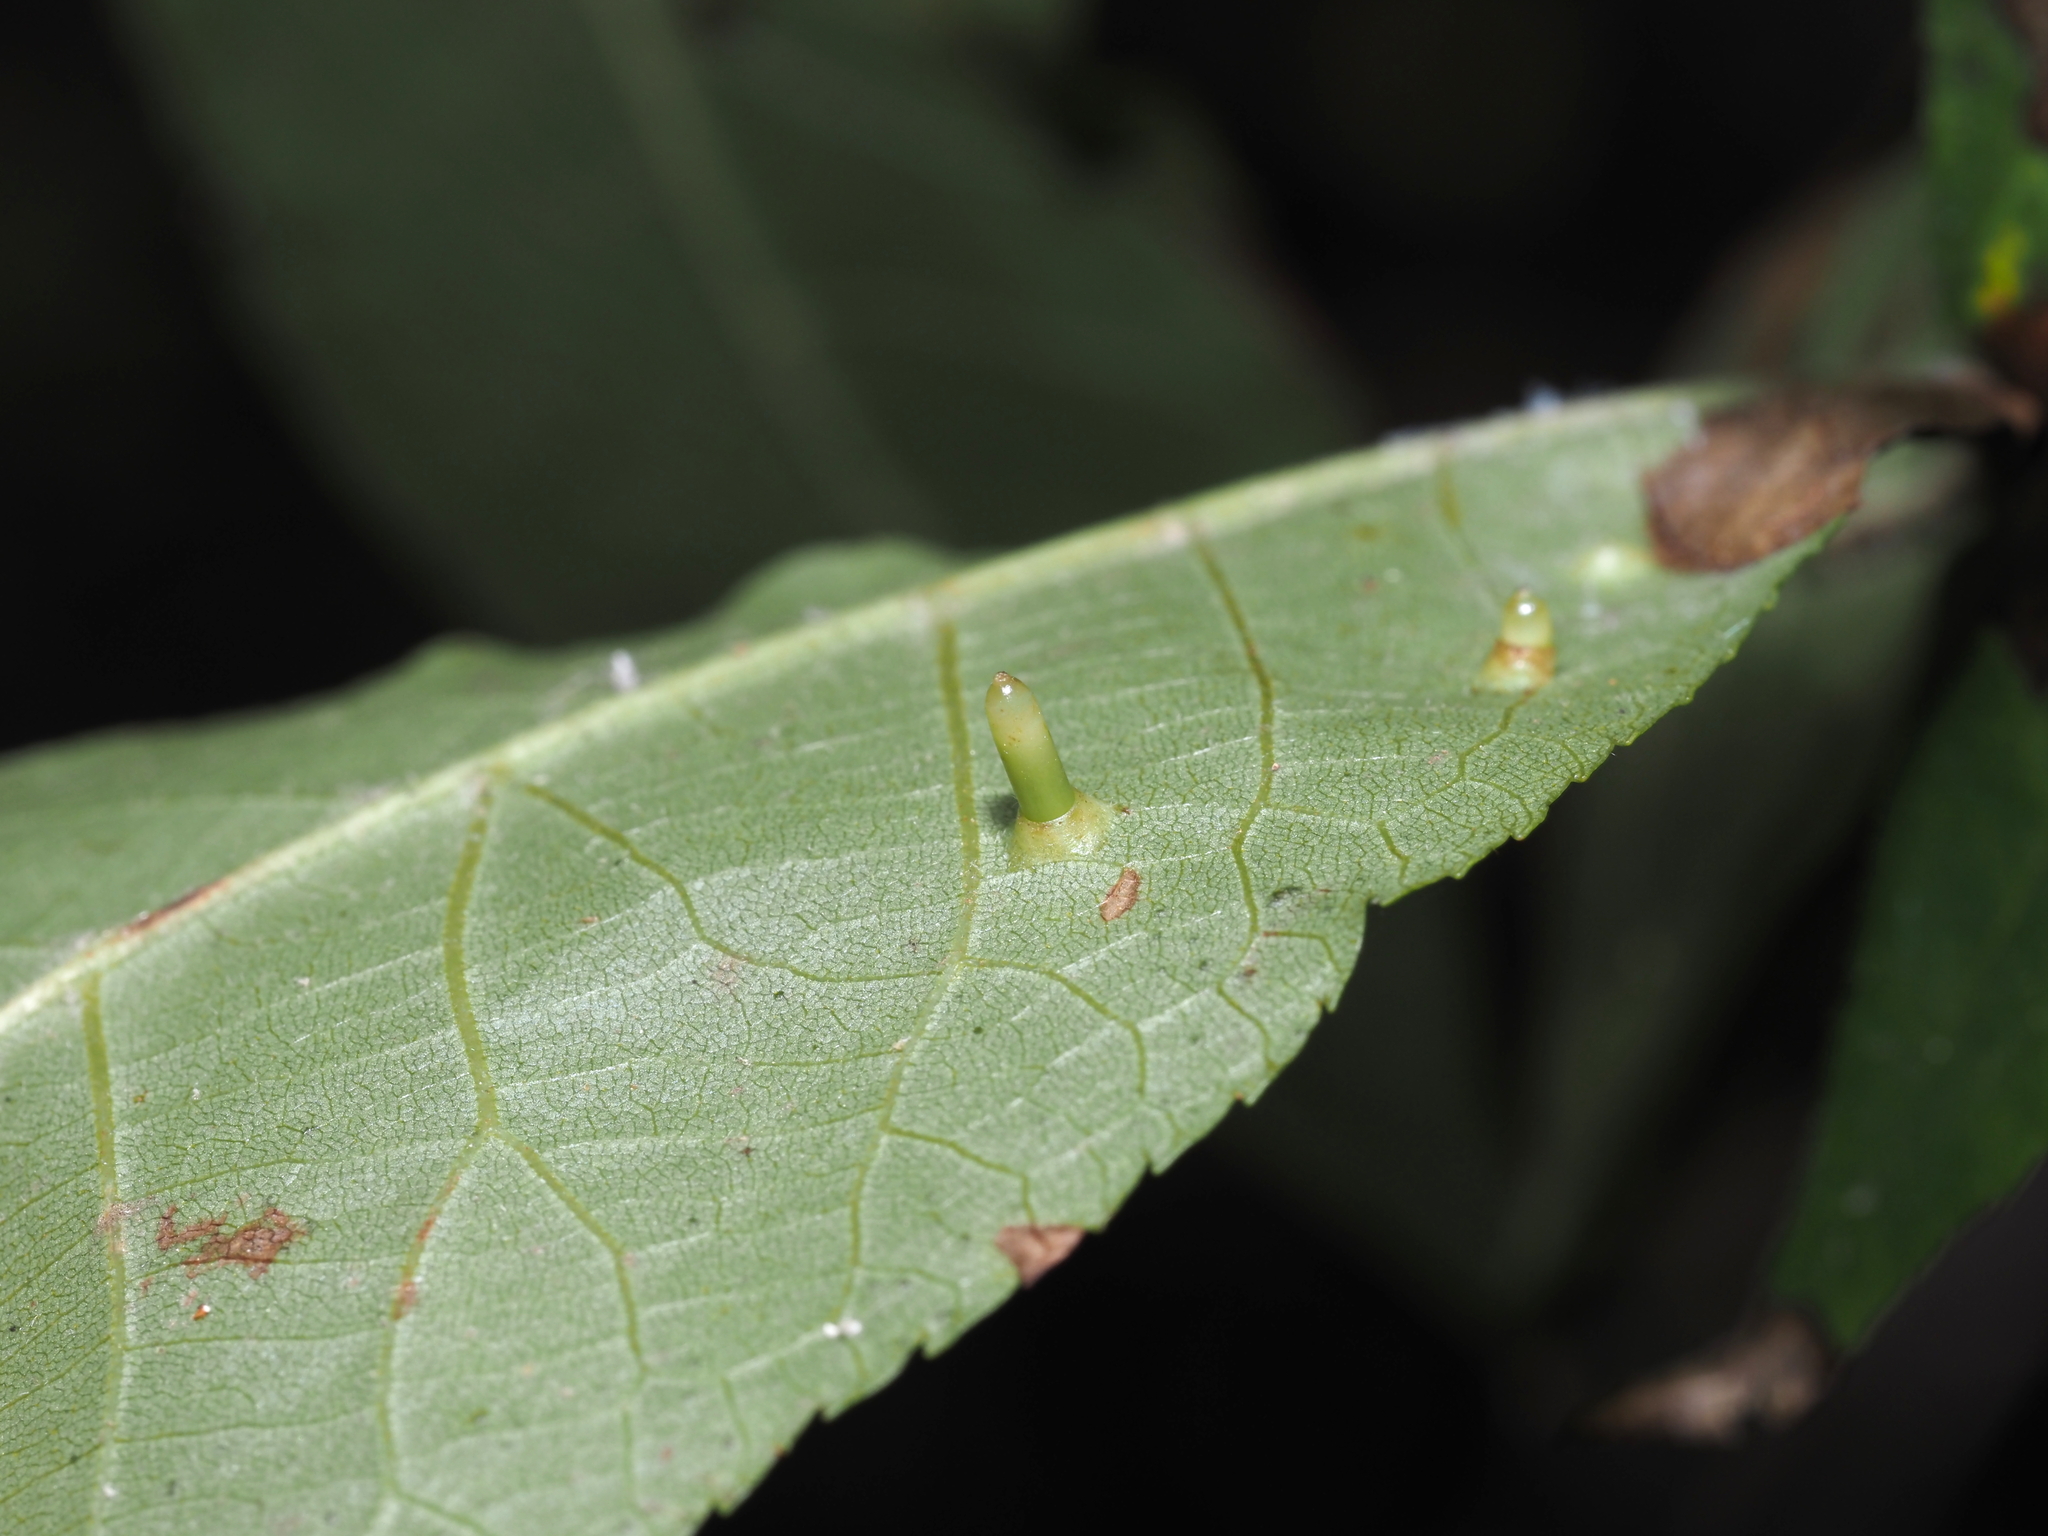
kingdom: Animalia
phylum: Arthropoda
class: Insecta
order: Diptera
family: Cecidomyiidae
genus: Caryomyia
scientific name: Caryomyia tubicola
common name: Hickory bullet gall midge
